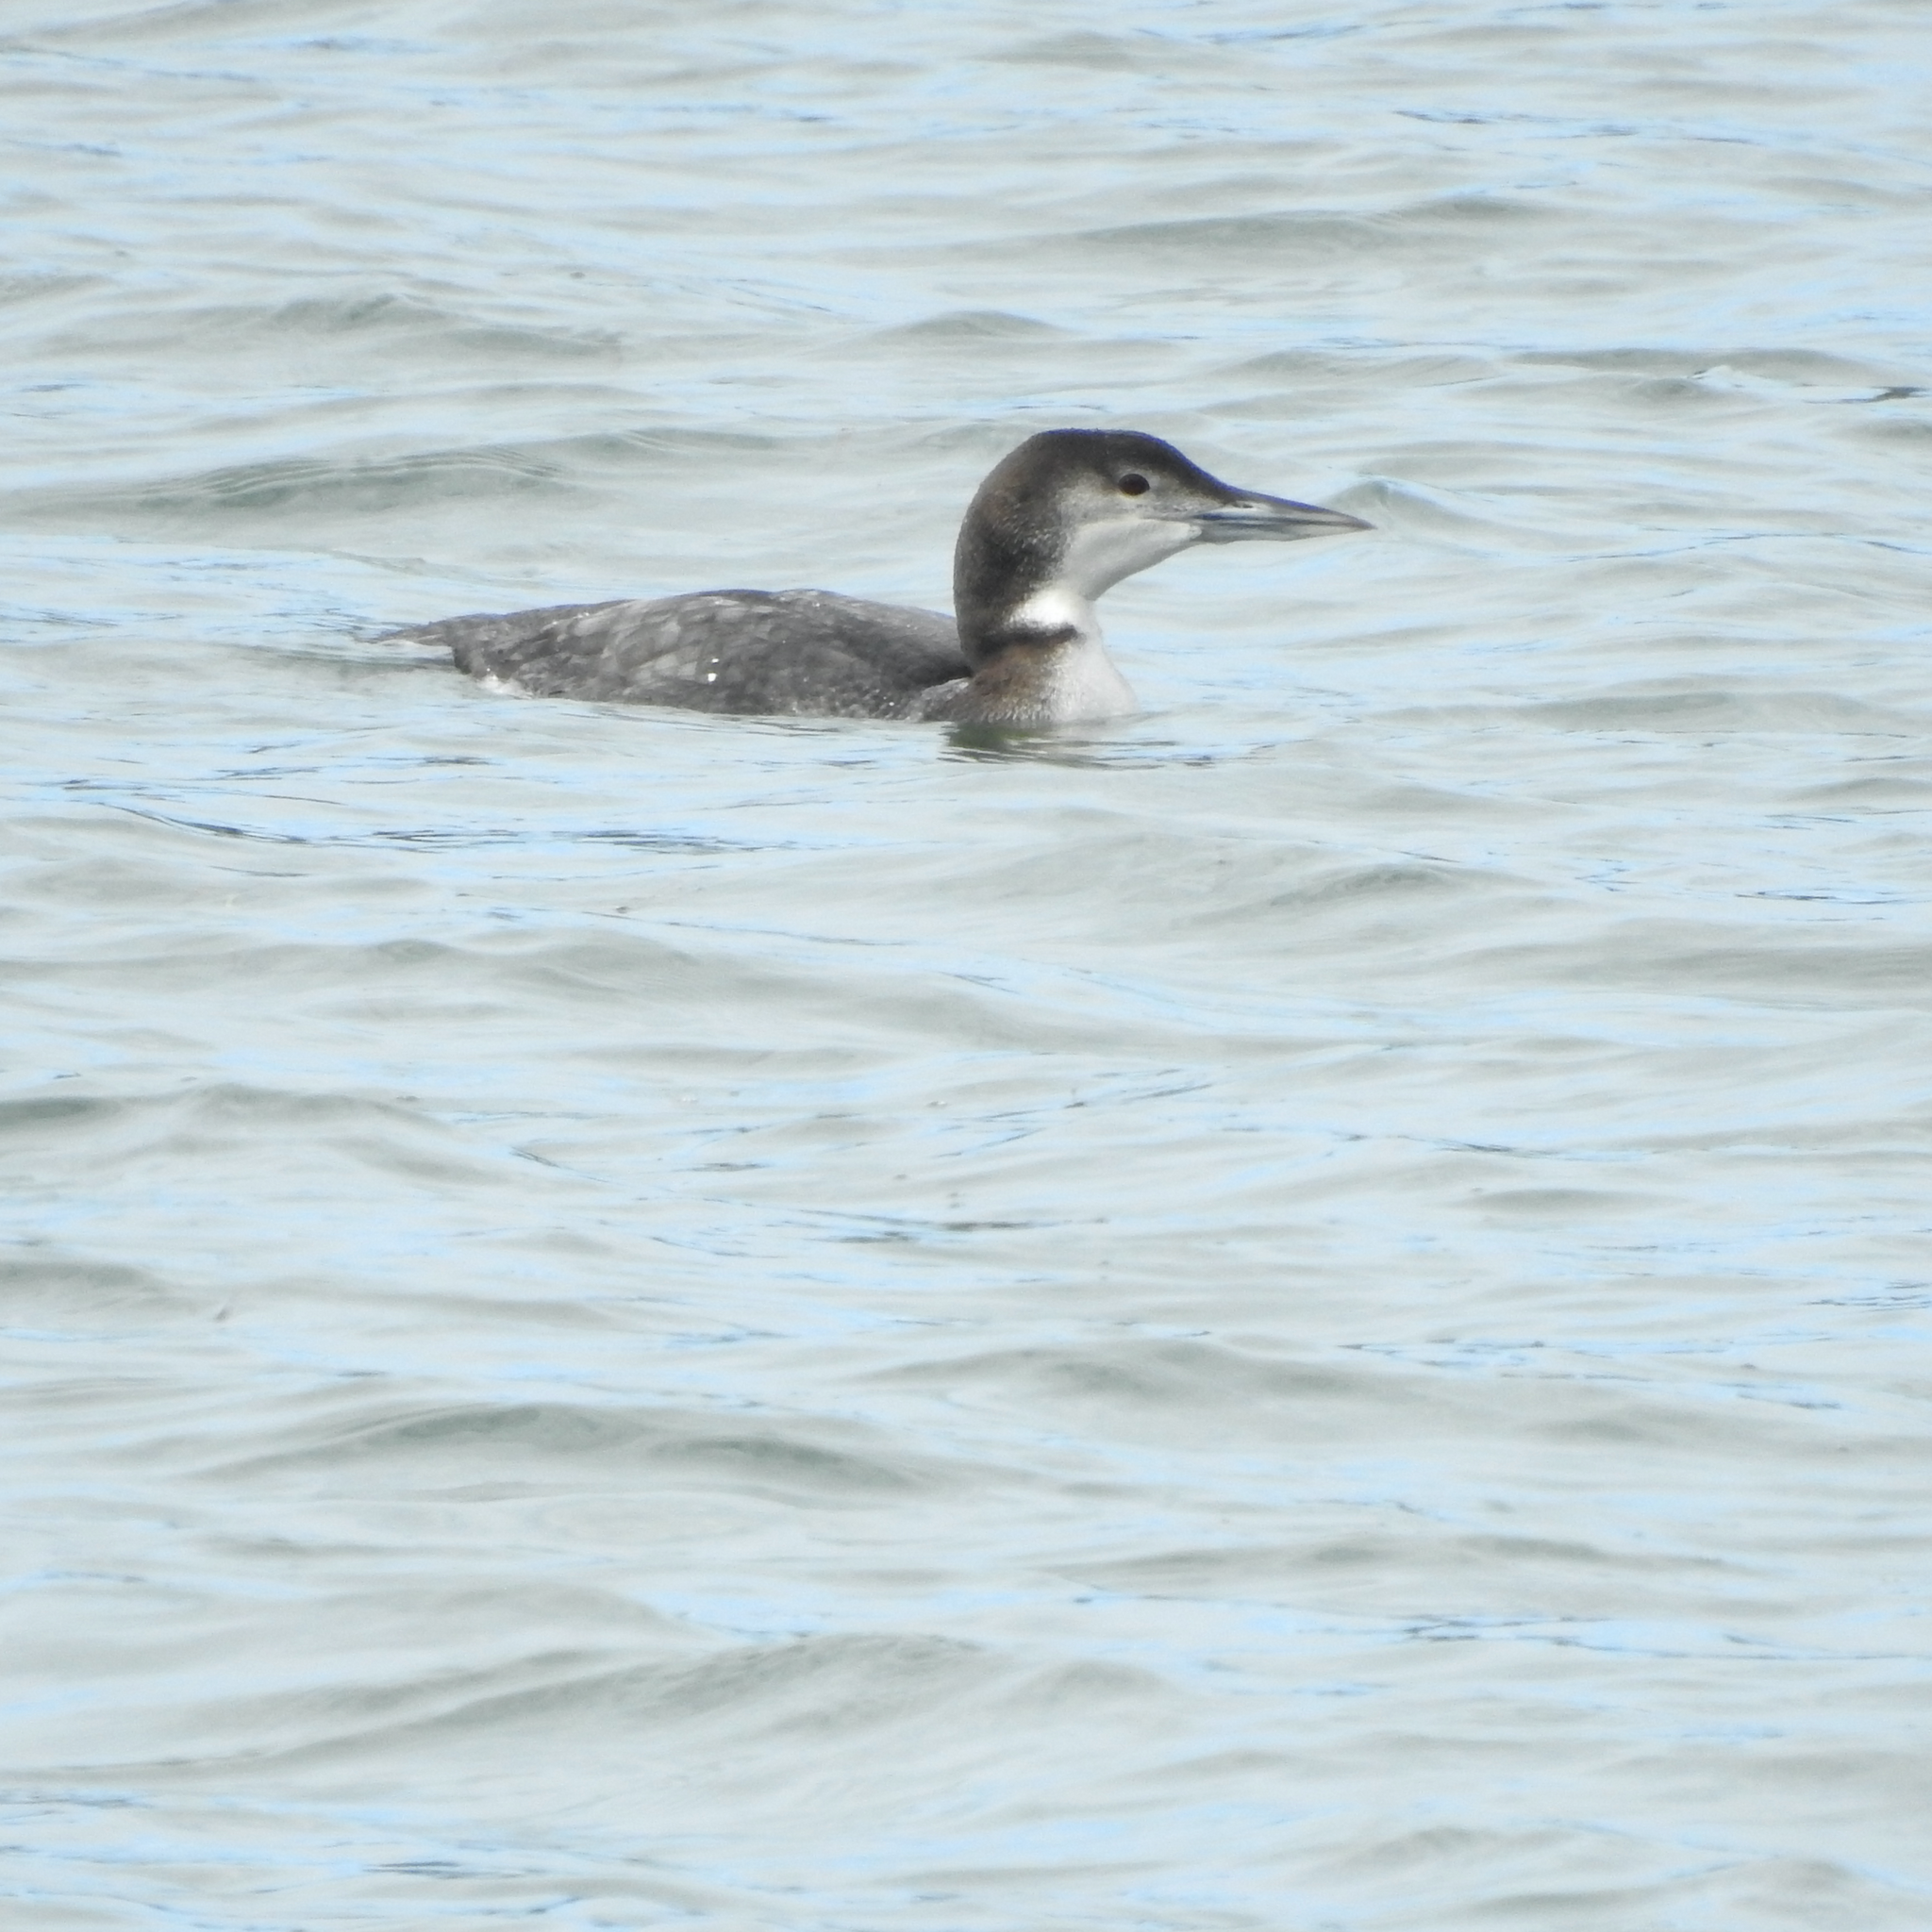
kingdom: Animalia
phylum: Chordata
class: Aves
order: Gaviiformes
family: Gaviidae
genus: Gavia
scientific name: Gavia immer
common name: Common loon
